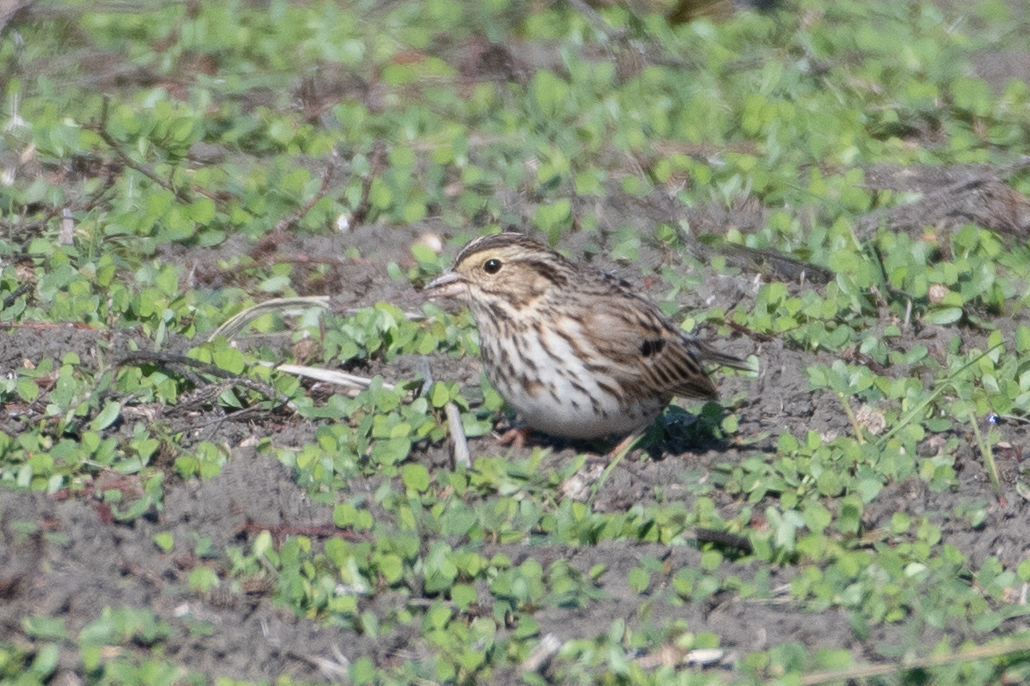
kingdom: Animalia
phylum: Chordata
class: Aves
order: Passeriformes
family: Passerellidae
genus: Passerculus
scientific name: Passerculus sandwichensis
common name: Savannah sparrow
